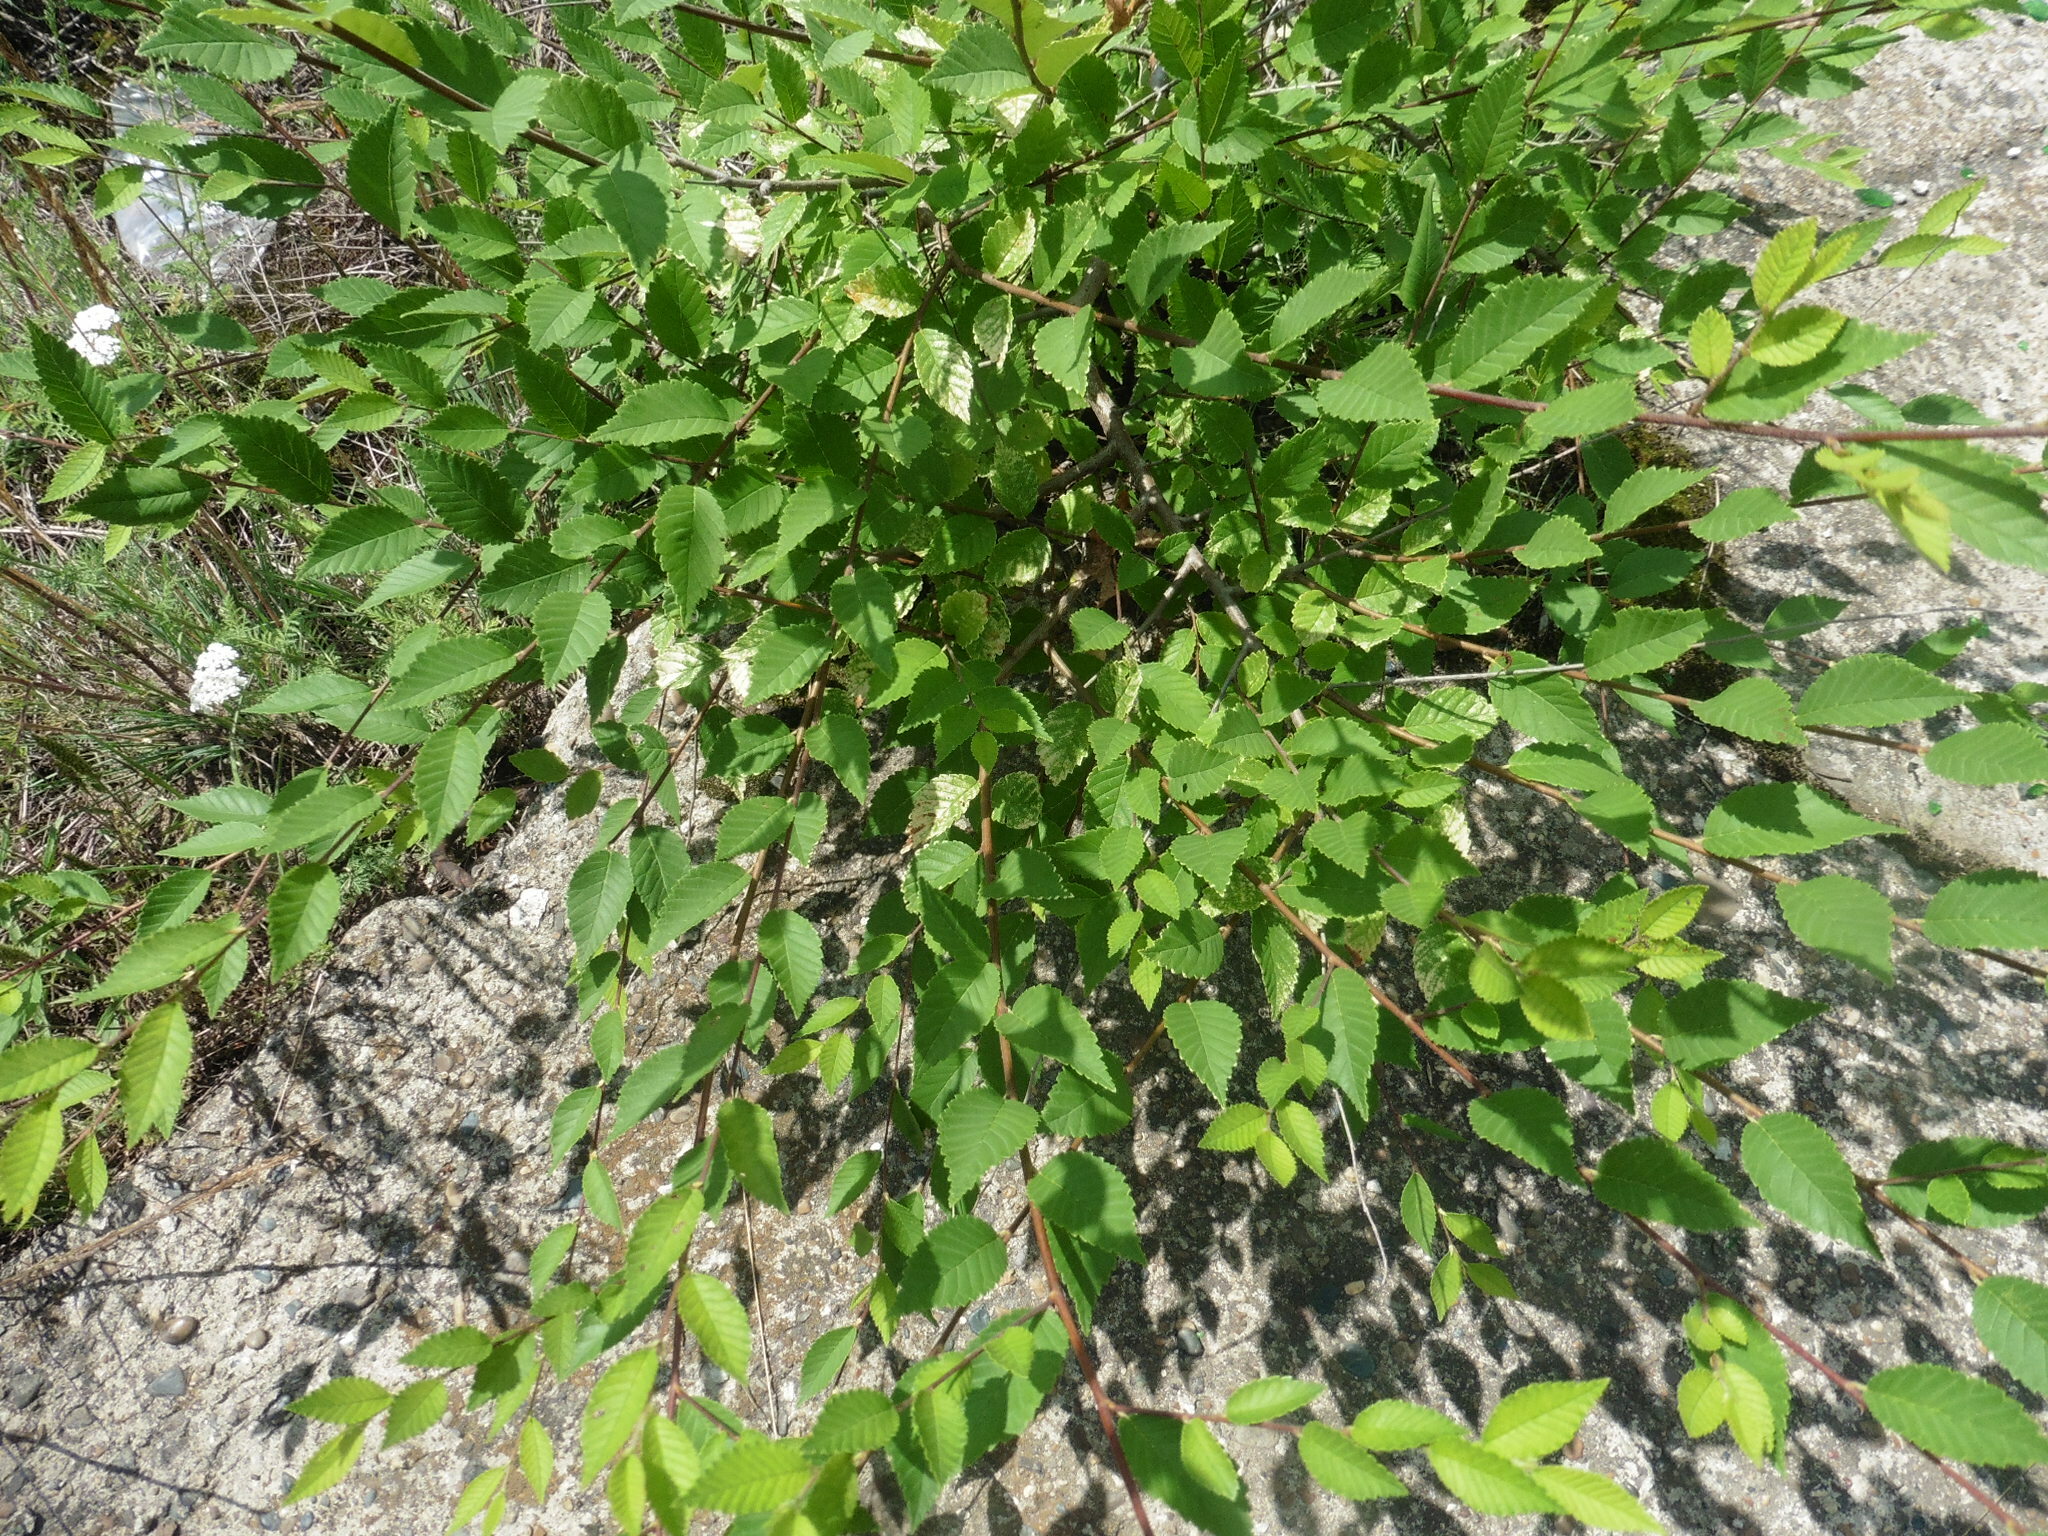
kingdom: Plantae
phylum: Tracheophyta
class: Magnoliopsida
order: Rosales
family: Ulmaceae
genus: Ulmus
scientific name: Ulmus pumila
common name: Siberian elm
